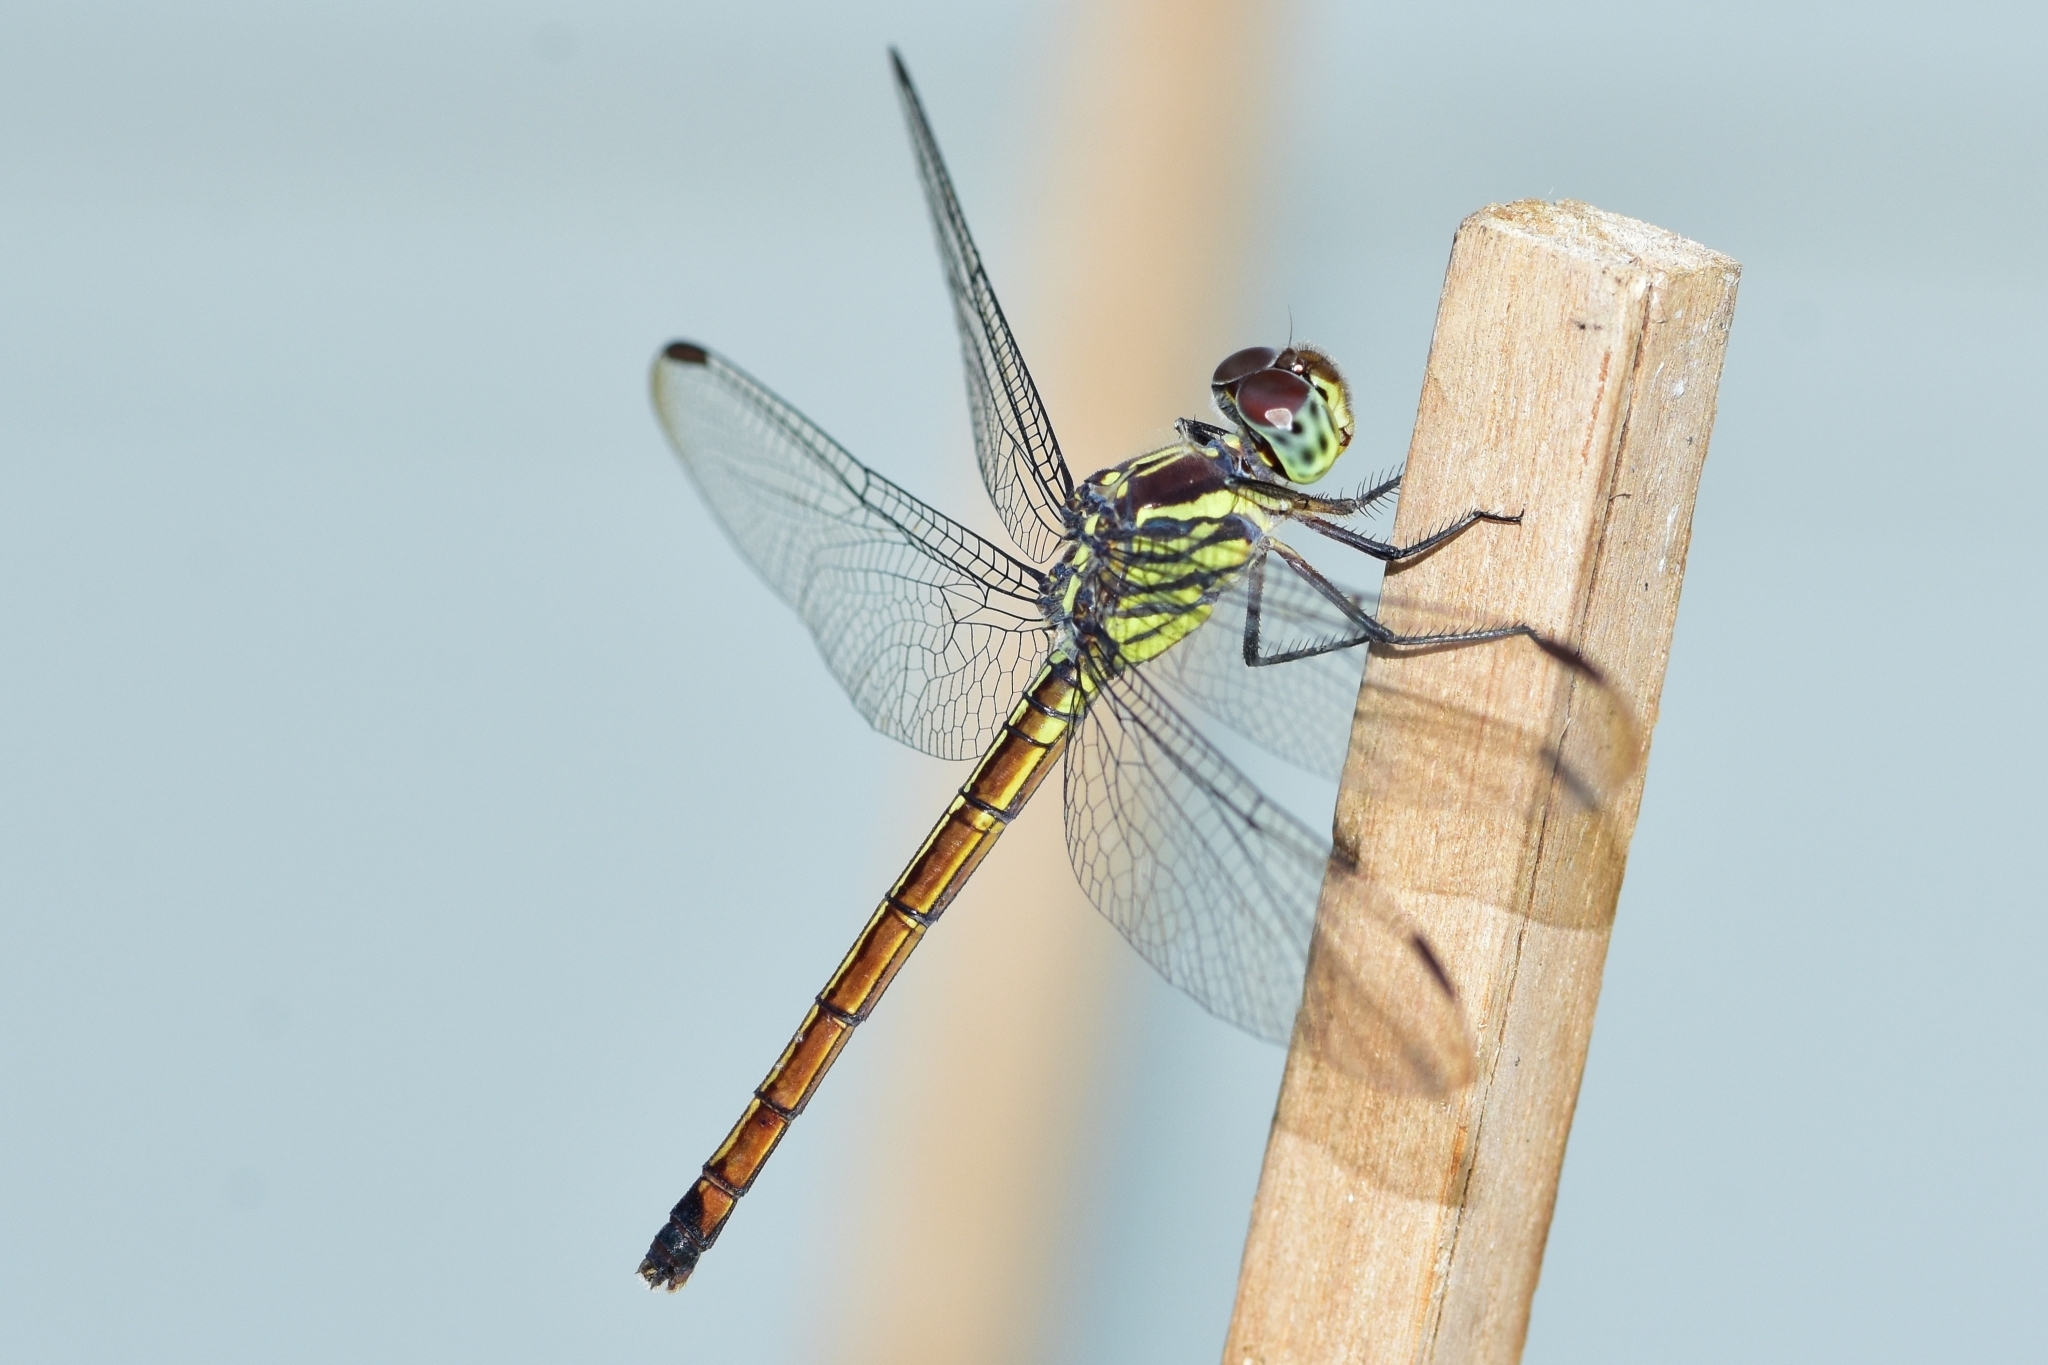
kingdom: Animalia
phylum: Arthropoda
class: Insecta
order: Odonata
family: Libellulidae
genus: Lathrecista
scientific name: Lathrecista asiatica
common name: Scarlet grenadier
